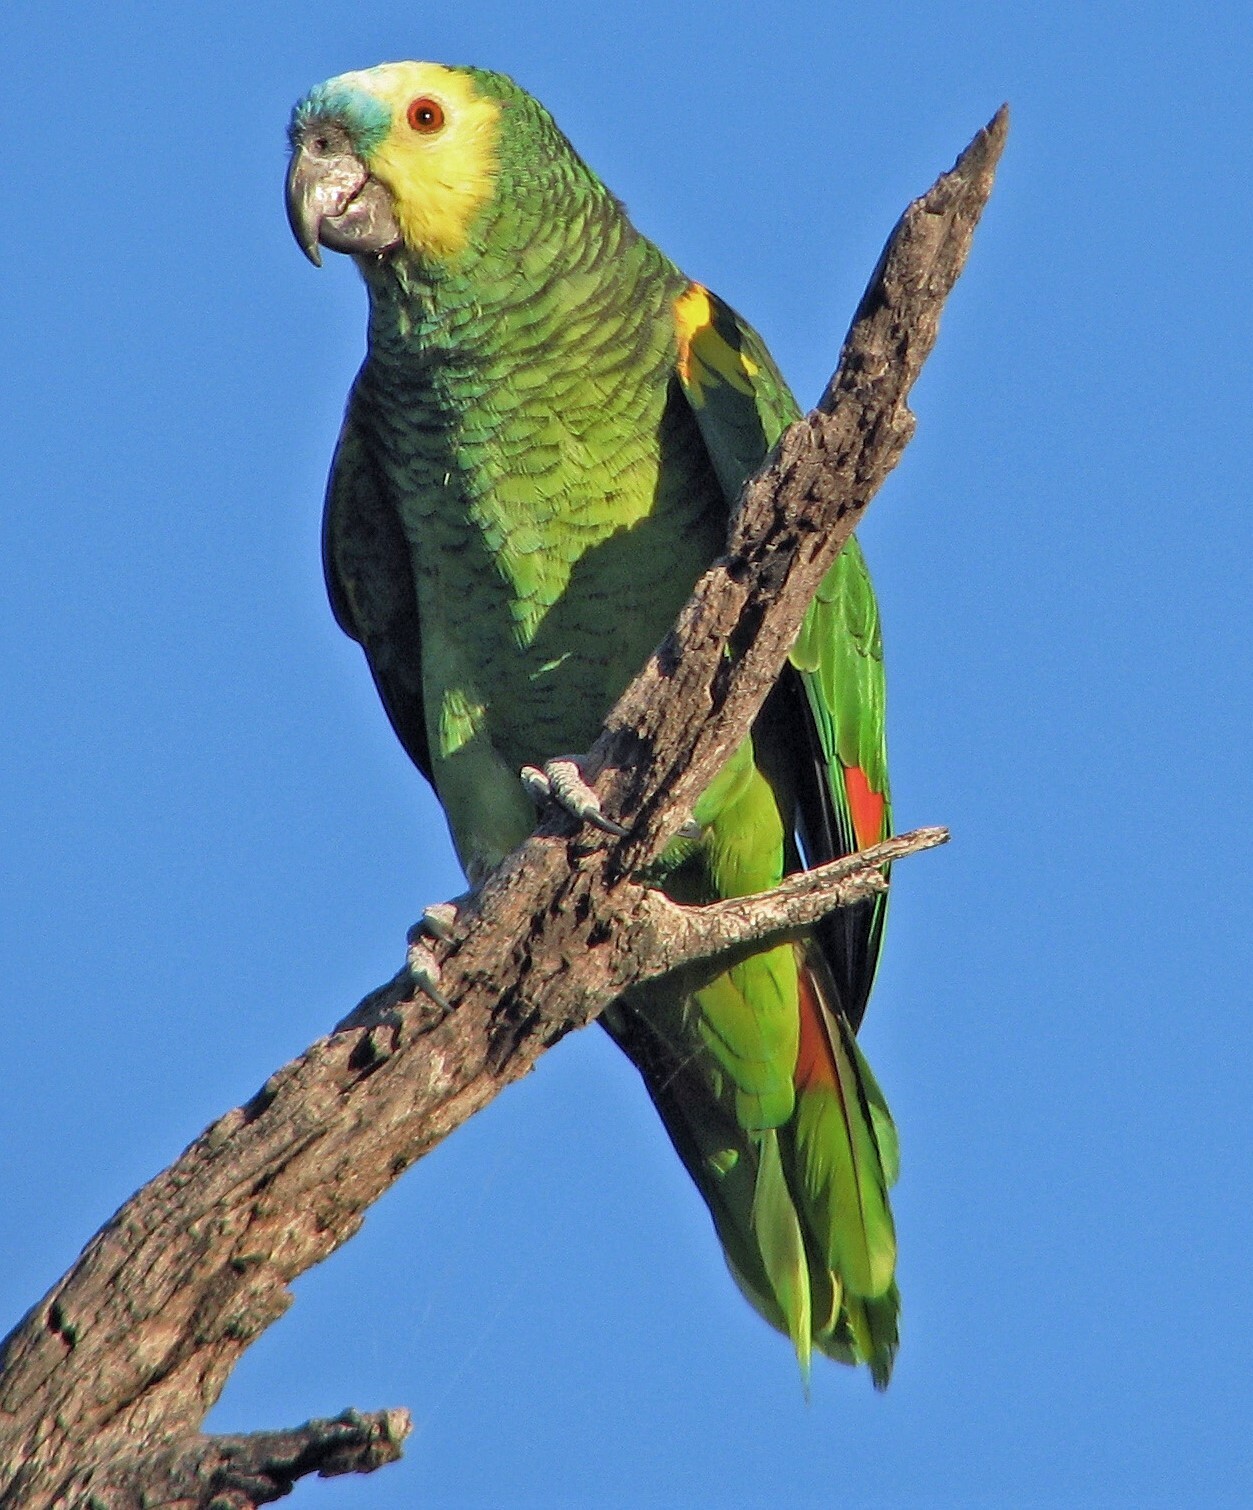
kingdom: Animalia
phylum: Chordata
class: Aves
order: Psittaciformes
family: Psittacidae
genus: Amazona
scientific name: Amazona aestiva
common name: Turquoise-fronted amazon
